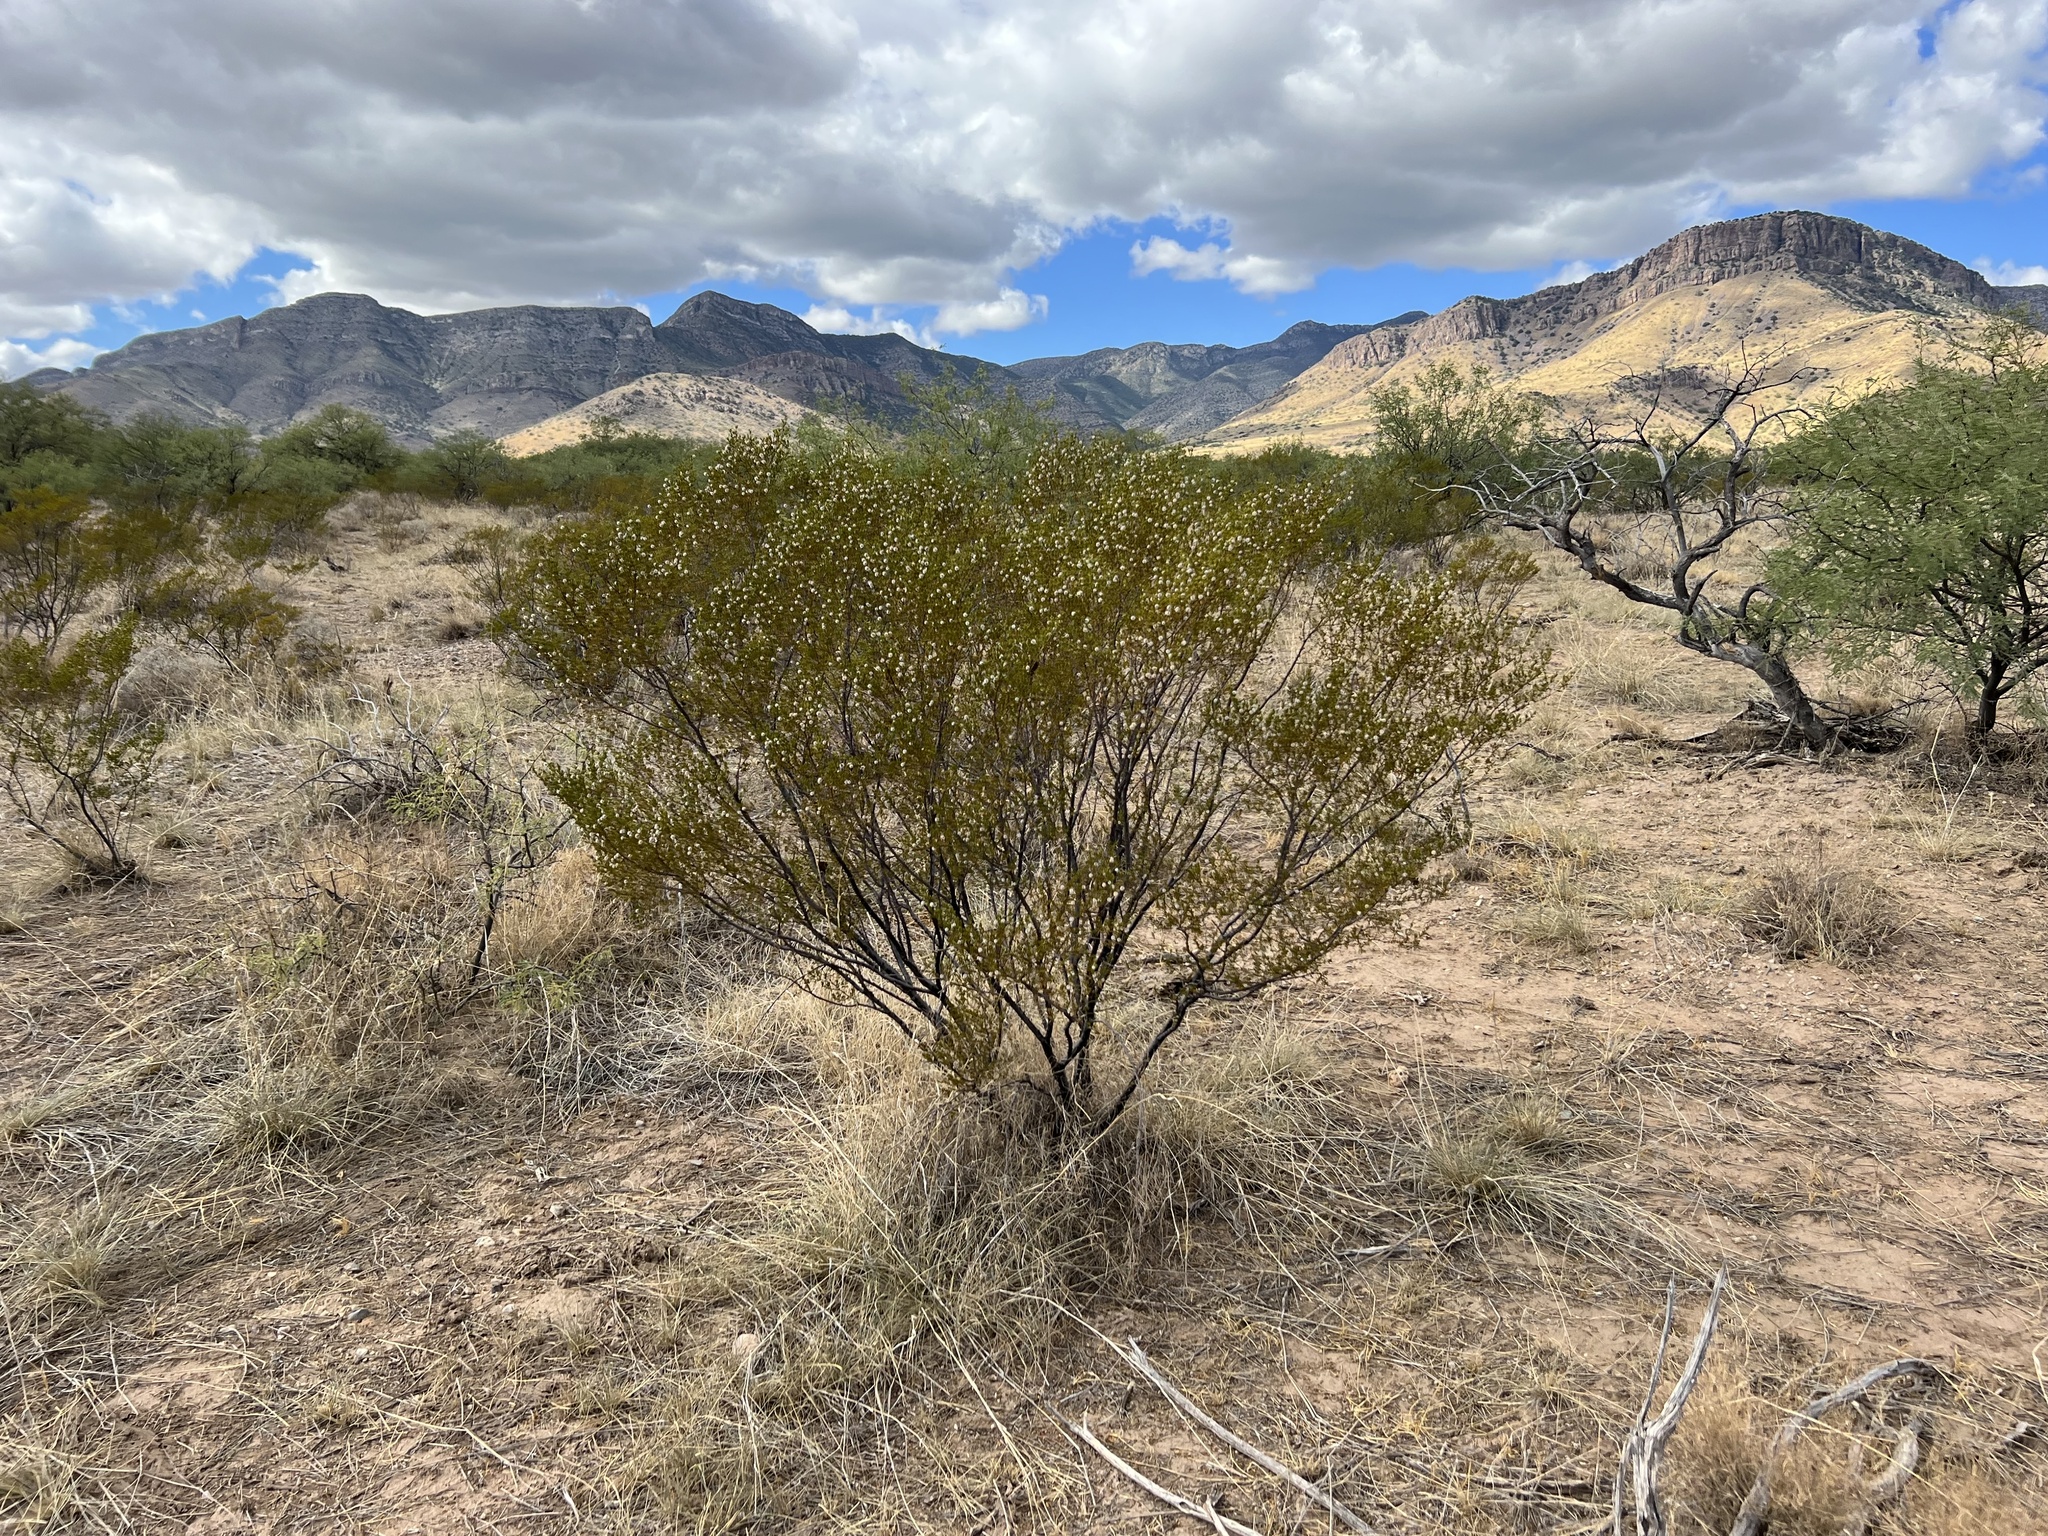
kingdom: Plantae
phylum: Tracheophyta
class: Magnoliopsida
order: Zygophyllales
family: Zygophyllaceae
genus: Larrea
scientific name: Larrea tridentata
